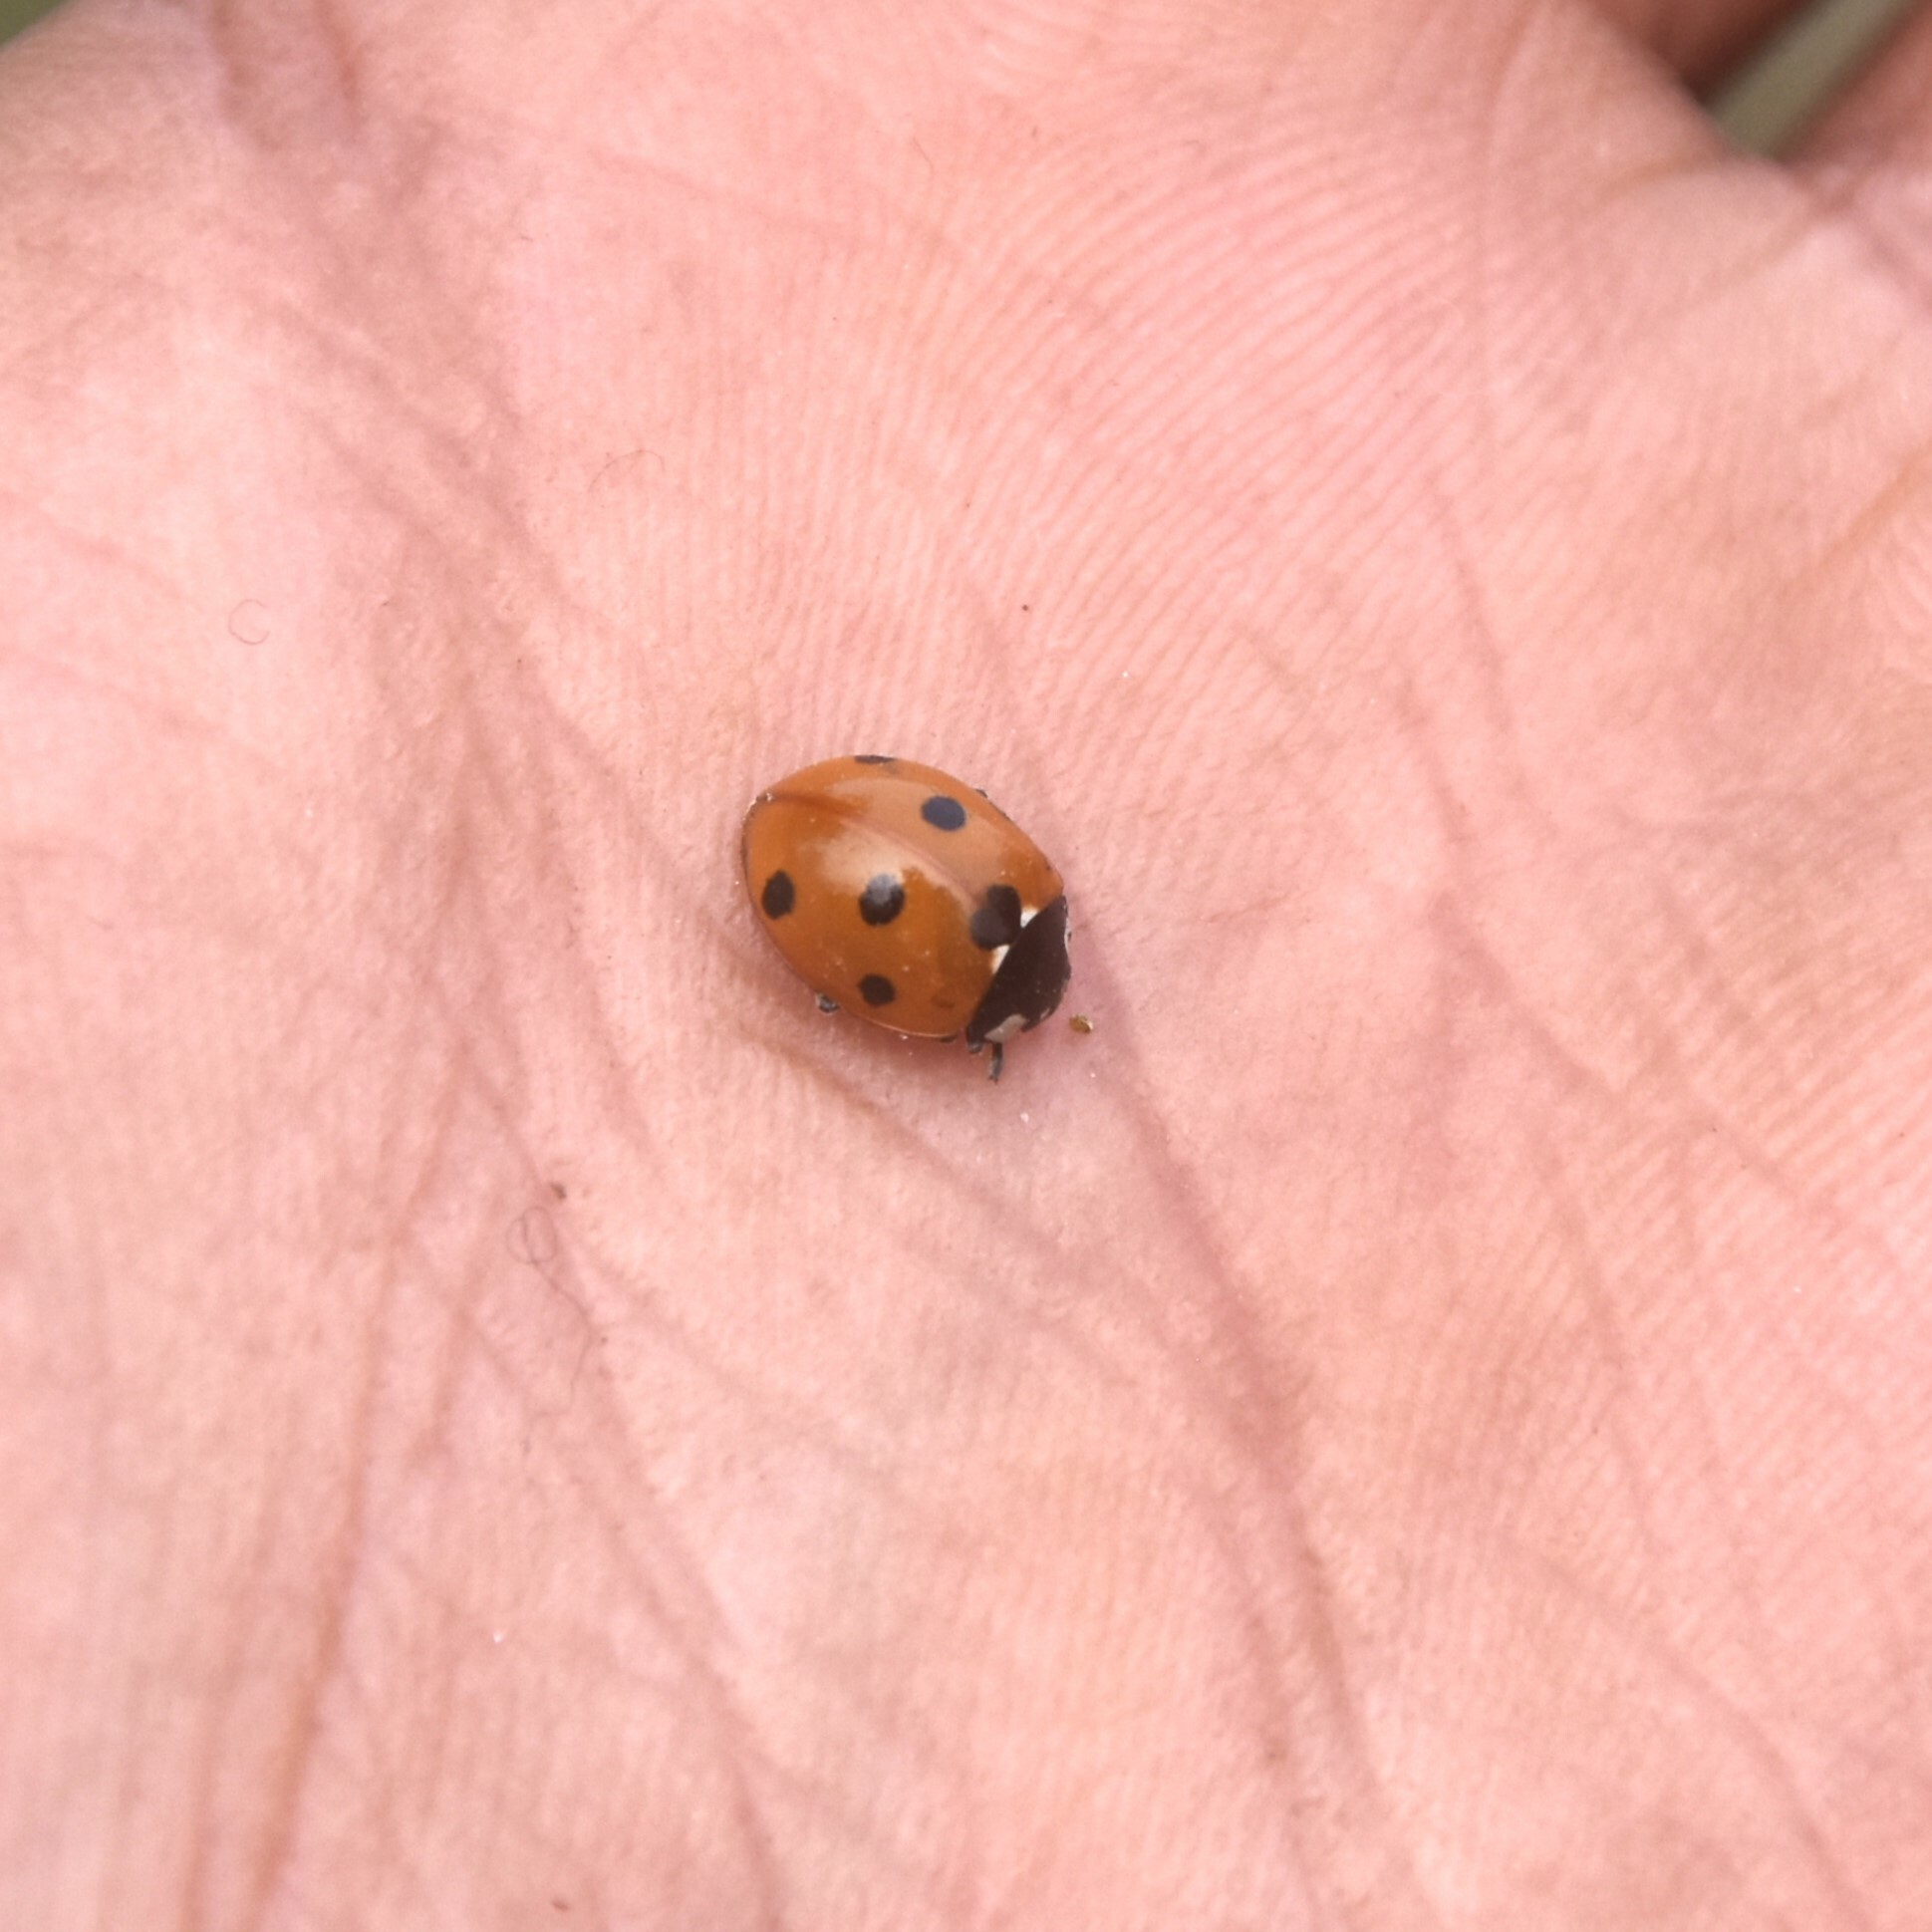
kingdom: Animalia
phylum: Arthropoda
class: Insecta
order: Coleoptera
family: Coccinellidae
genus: Coccinella
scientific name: Coccinella septempunctata
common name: Sevenspotted lady beetle
